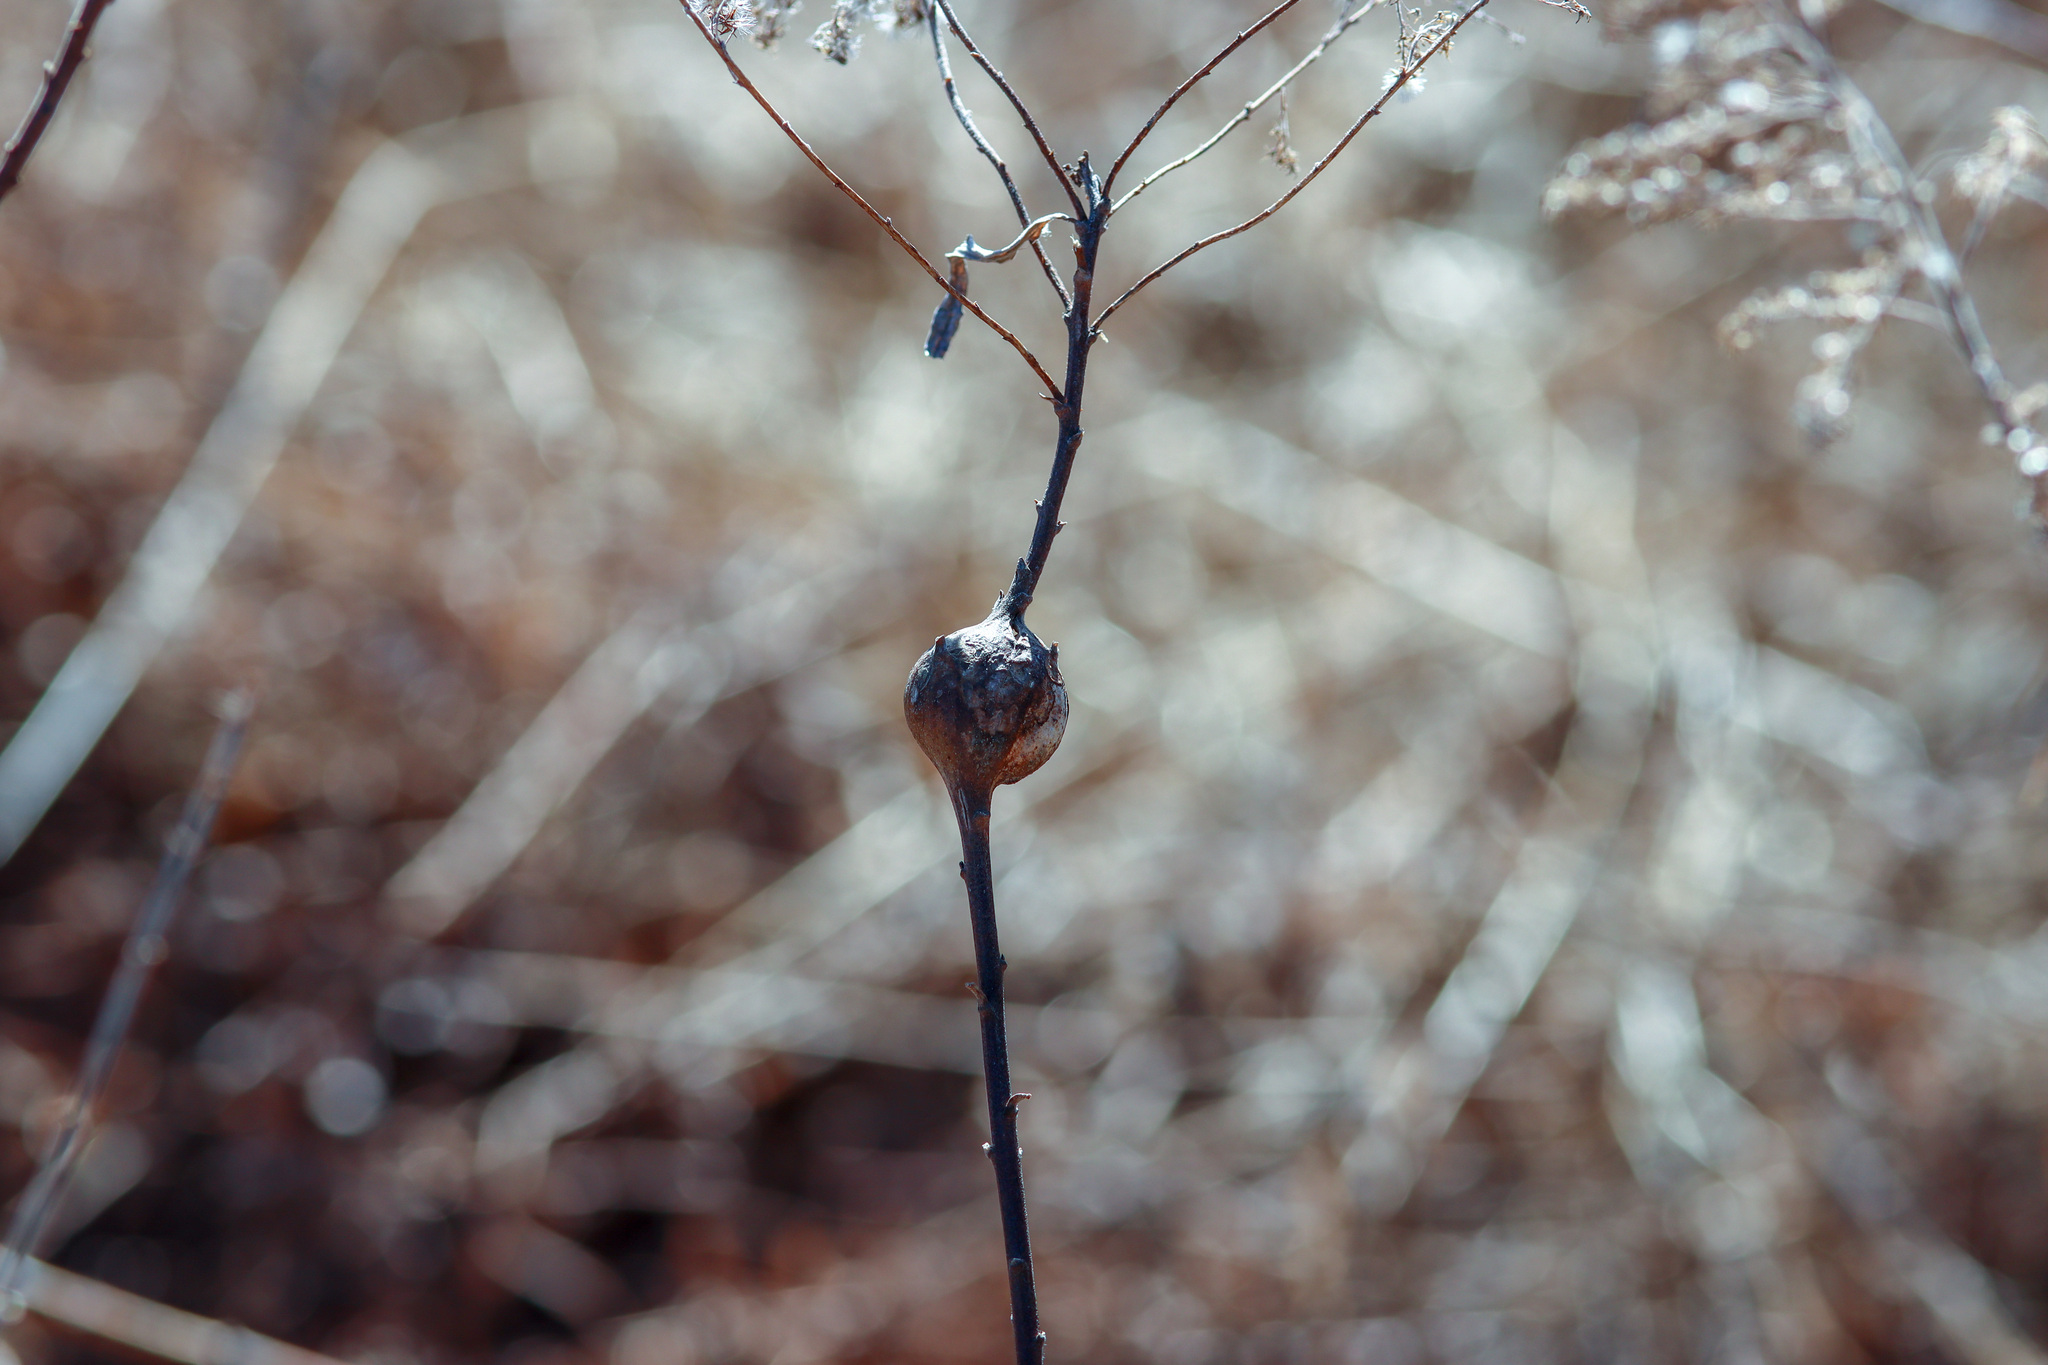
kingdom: Animalia
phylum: Arthropoda
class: Insecta
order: Diptera
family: Tephritidae
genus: Eurosta
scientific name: Eurosta solidaginis
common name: Goldenrod gall fly
